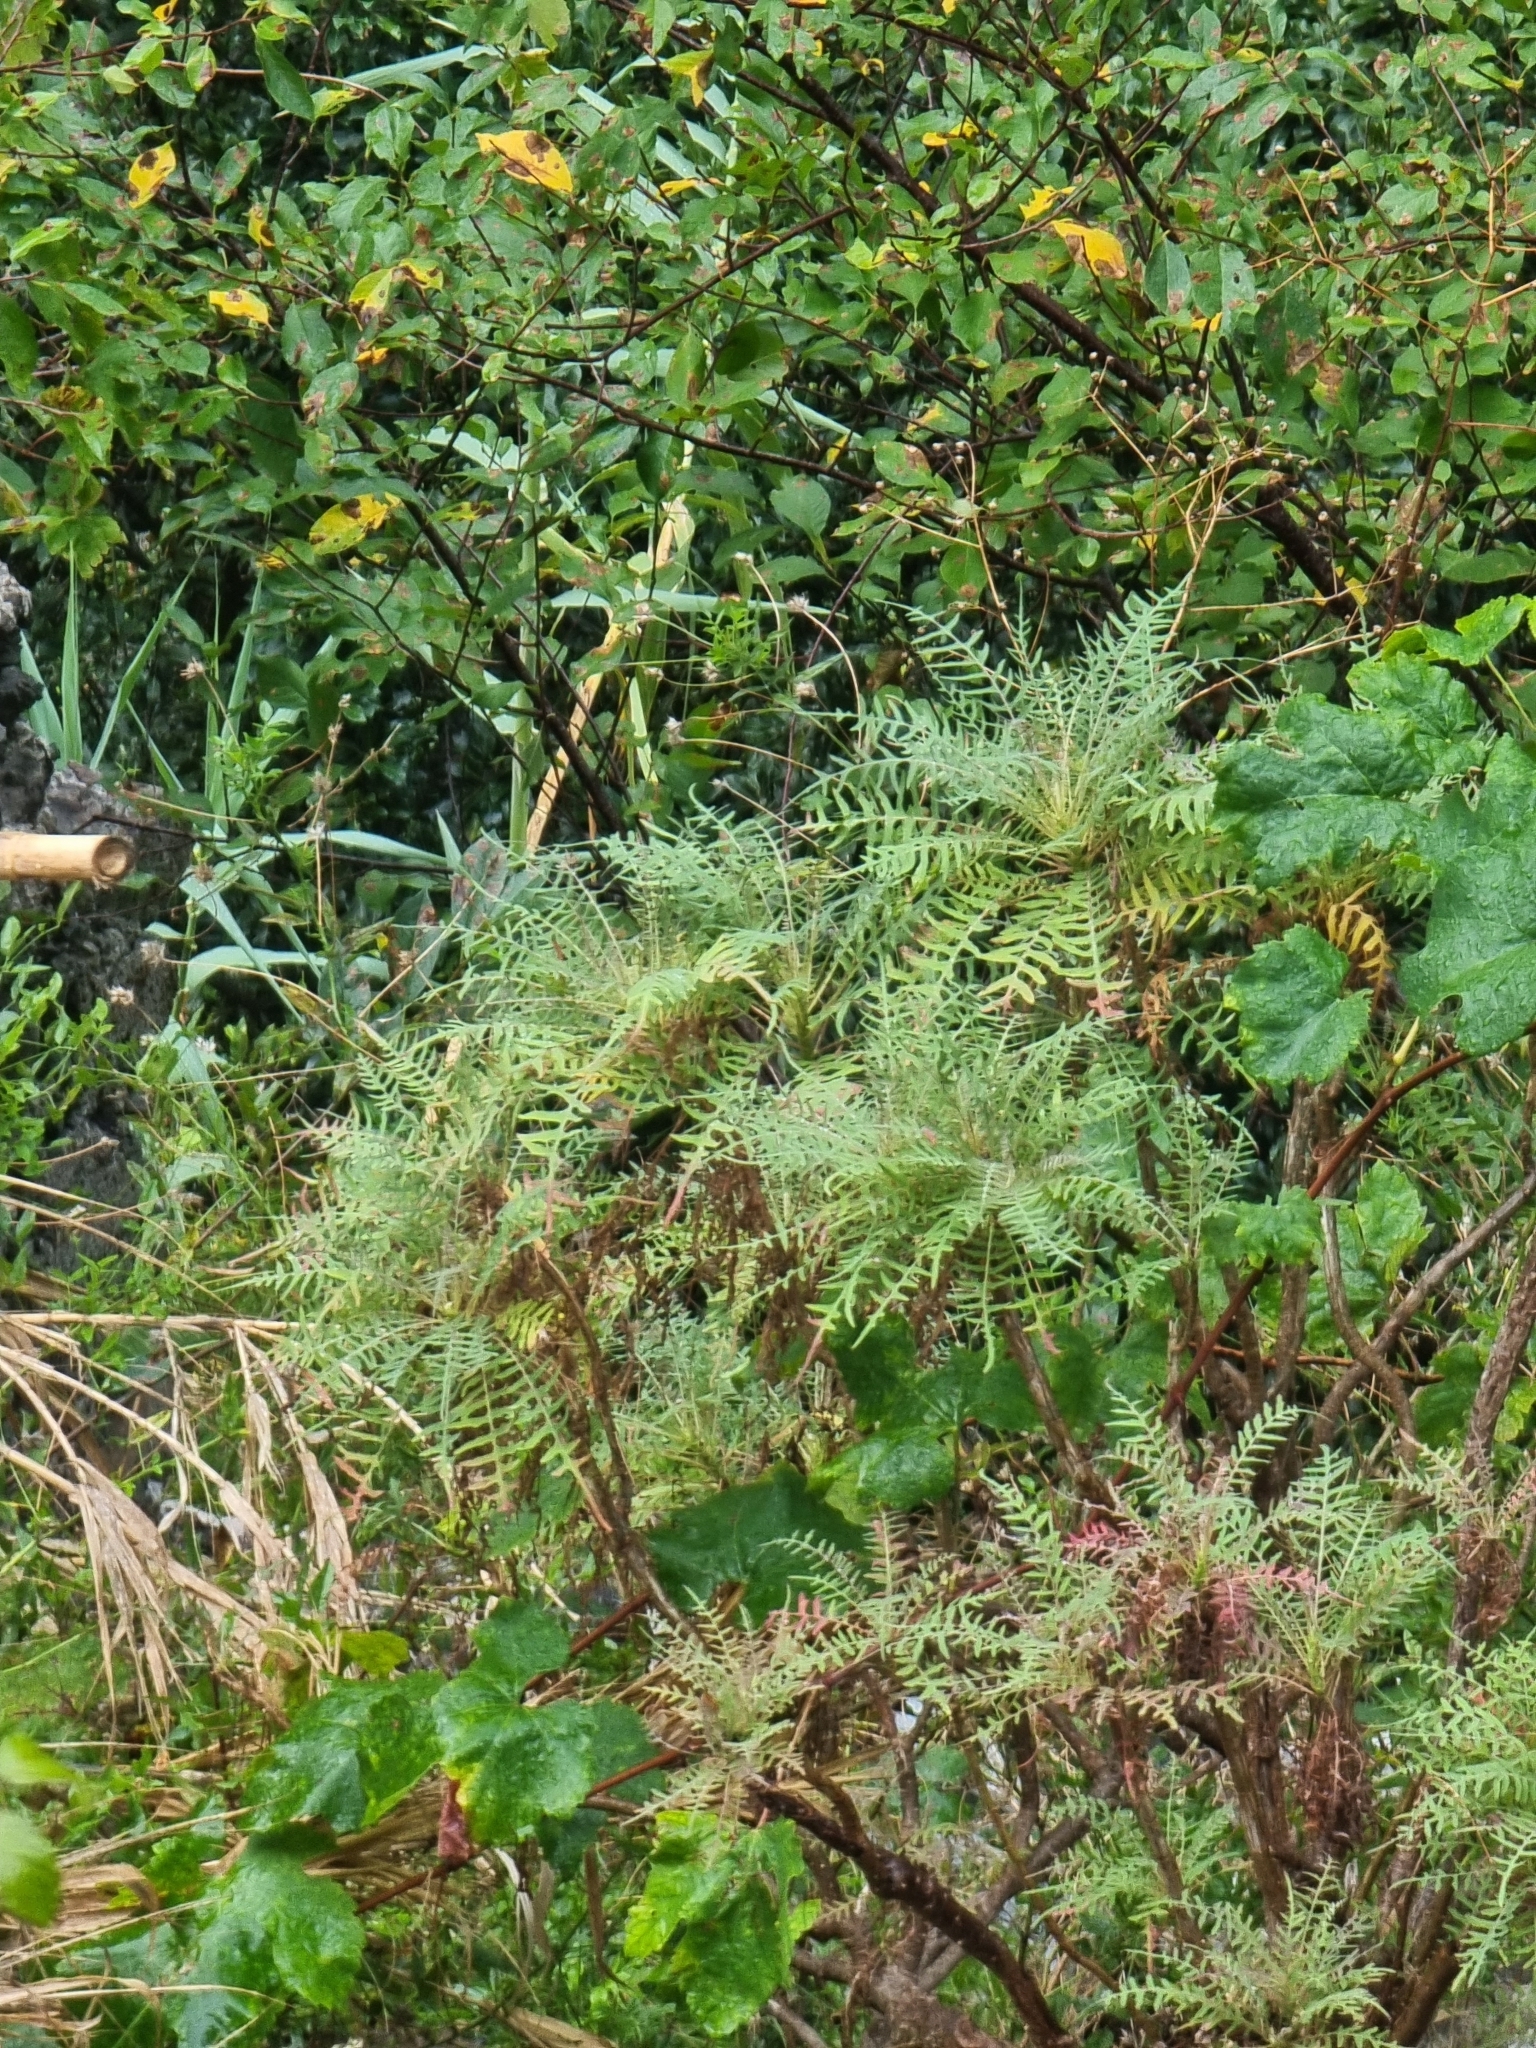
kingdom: Plantae
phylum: Tracheophyta
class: Magnoliopsida
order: Asterales
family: Asteraceae
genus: Sonchus
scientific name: Sonchus pinnatus
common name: Wing-leaved sow-thistle
